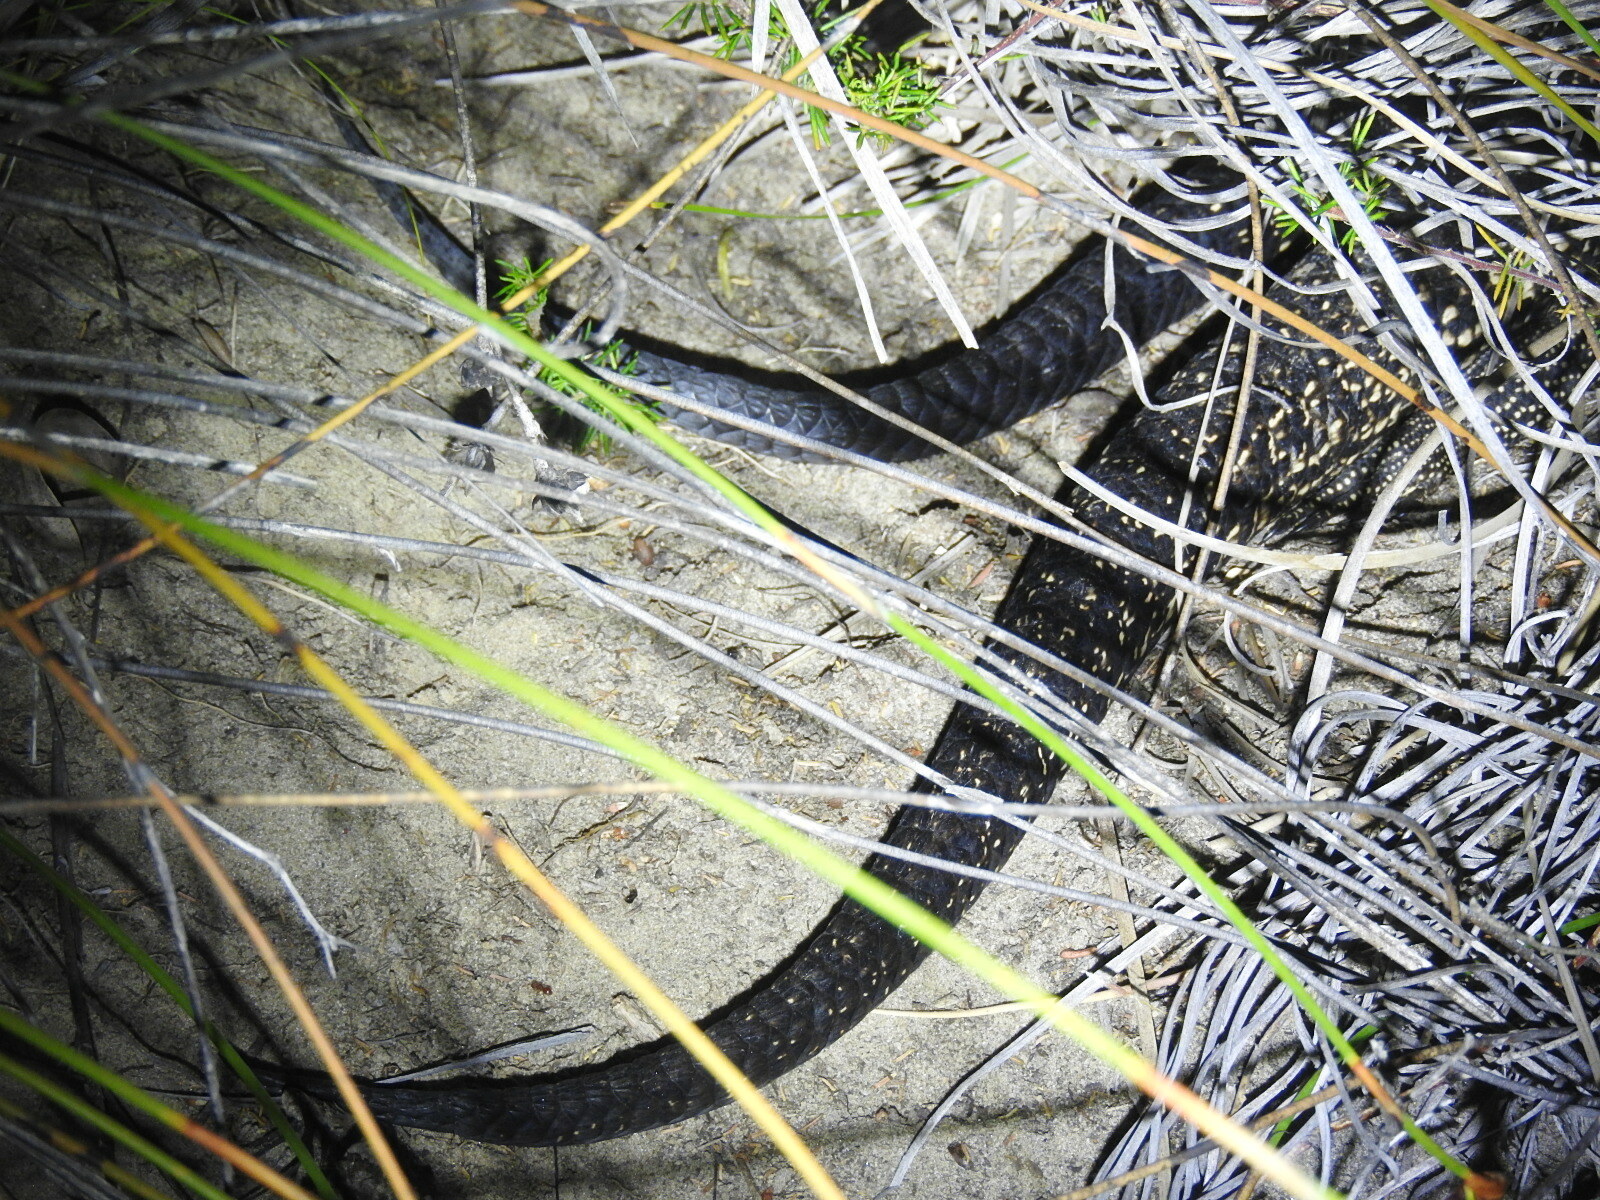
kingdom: Animalia
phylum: Chordata
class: Squamata
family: Scincidae
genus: Egernia
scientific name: Egernia kingii
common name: King's skink
